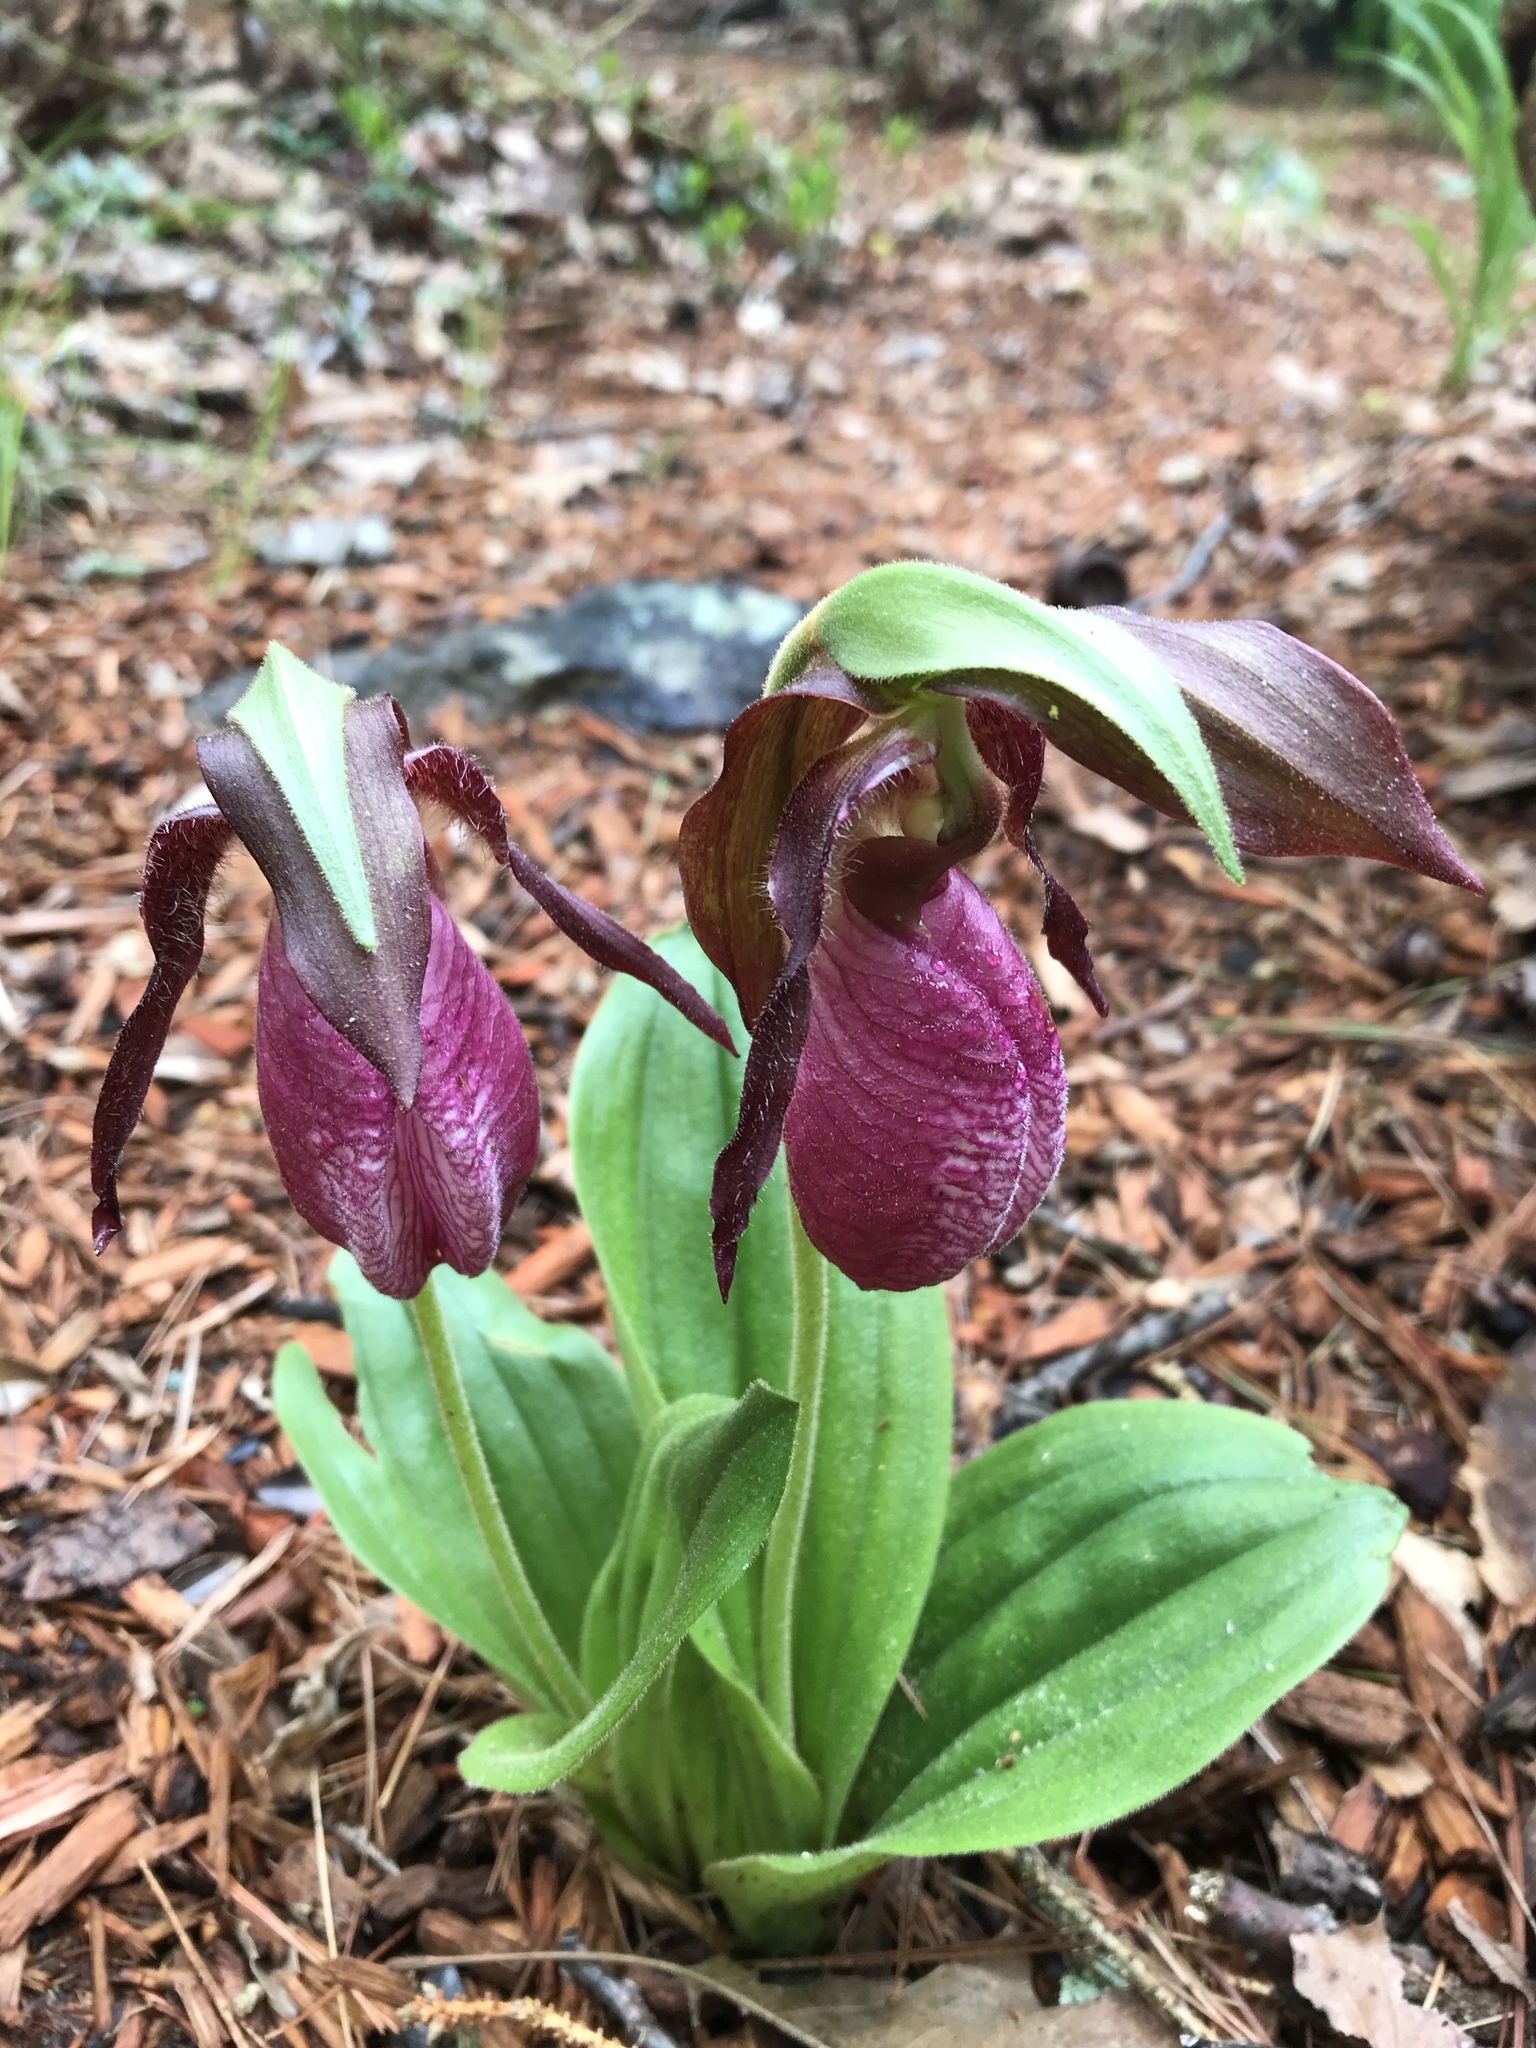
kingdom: Plantae
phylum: Tracheophyta
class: Liliopsida
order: Asparagales
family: Orchidaceae
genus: Cypripedium
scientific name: Cypripedium acaule
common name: Pink lady's-slipper
